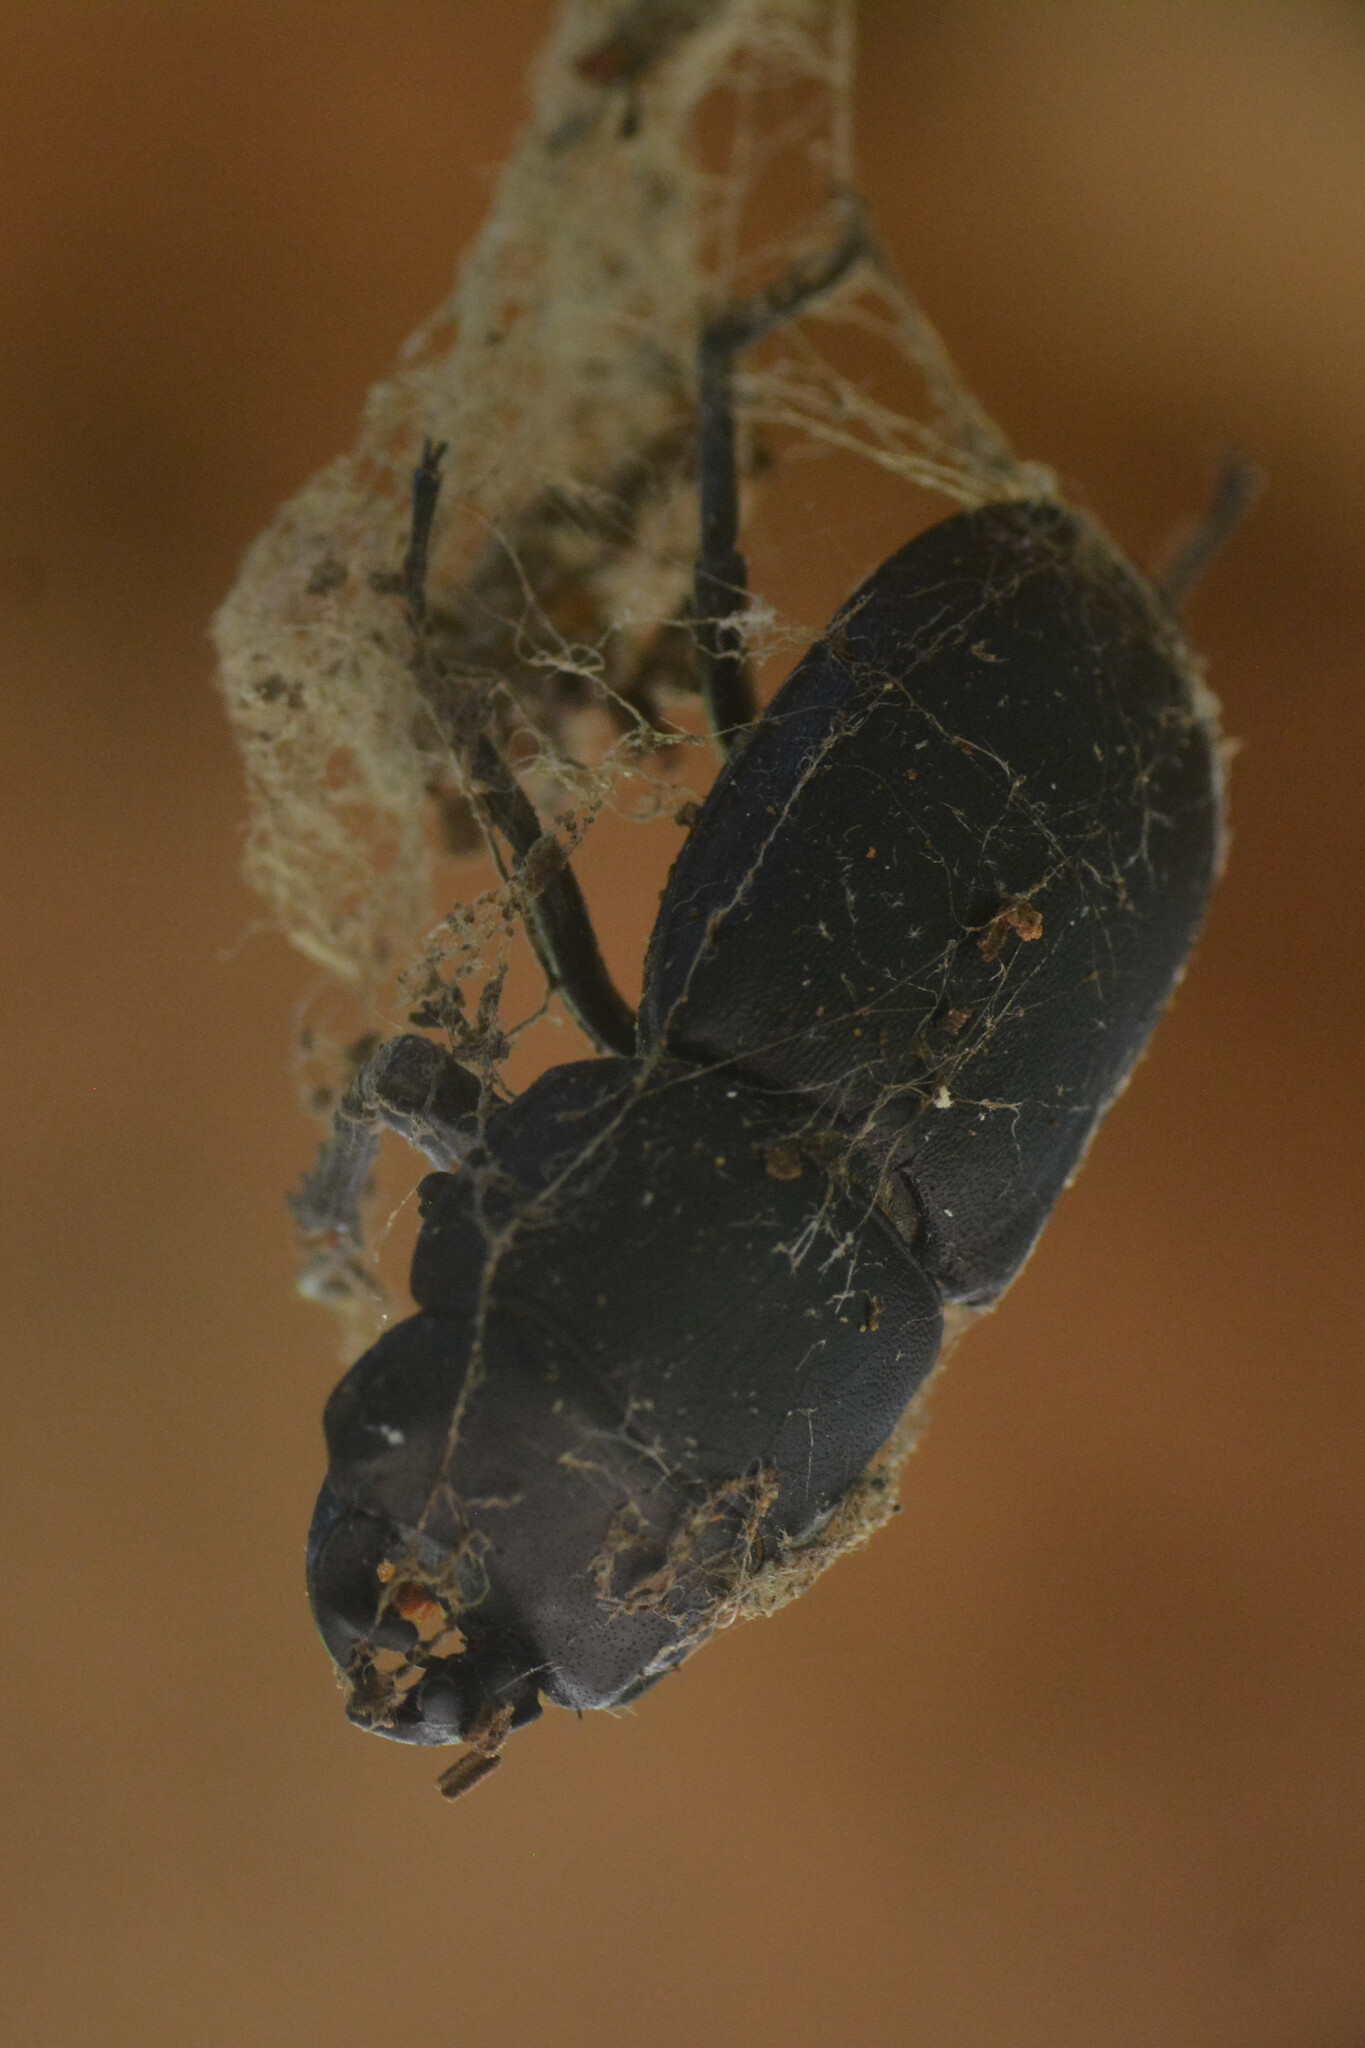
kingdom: Animalia
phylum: Arthropoda
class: Insecta
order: Coleoptera
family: Lucanidae
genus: Dorcus
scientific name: Dorcus parallelipipedus
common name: Lesser stag beetle
